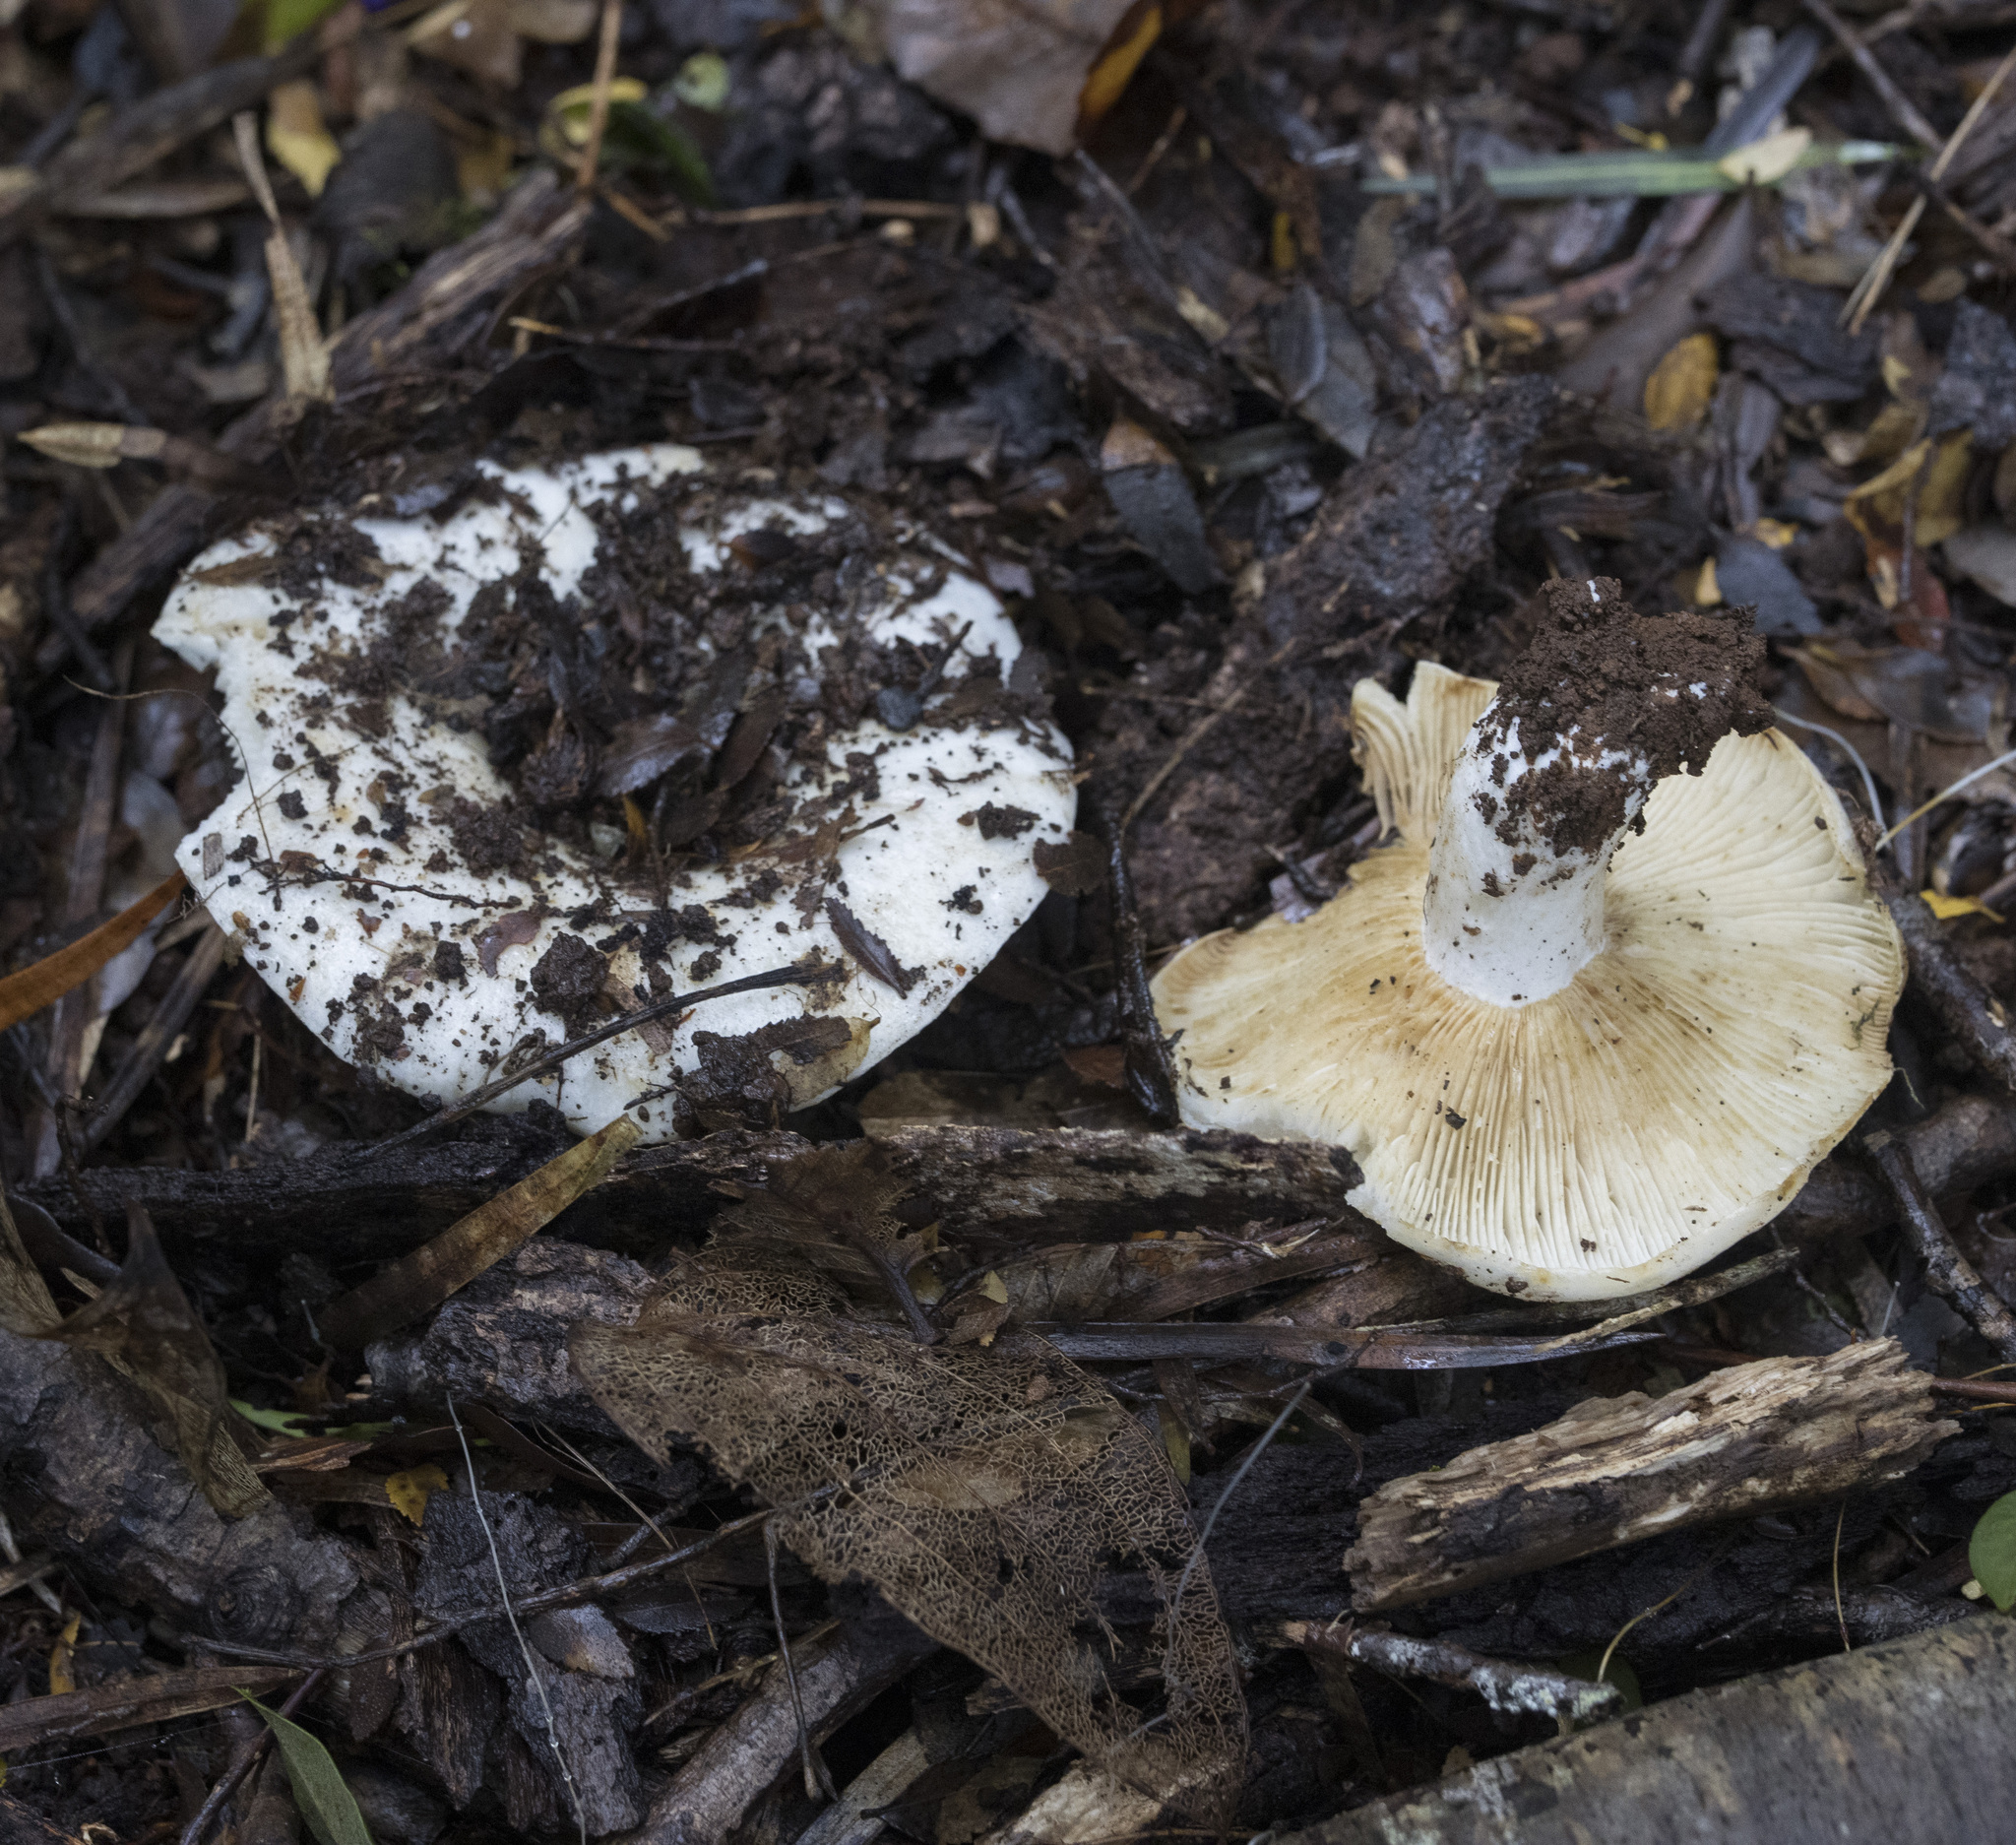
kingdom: Fungi
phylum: Basidiomycota
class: Agaricomycetes
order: Russulales
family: Russulaceae
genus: Russula
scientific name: Russula fuegiana
